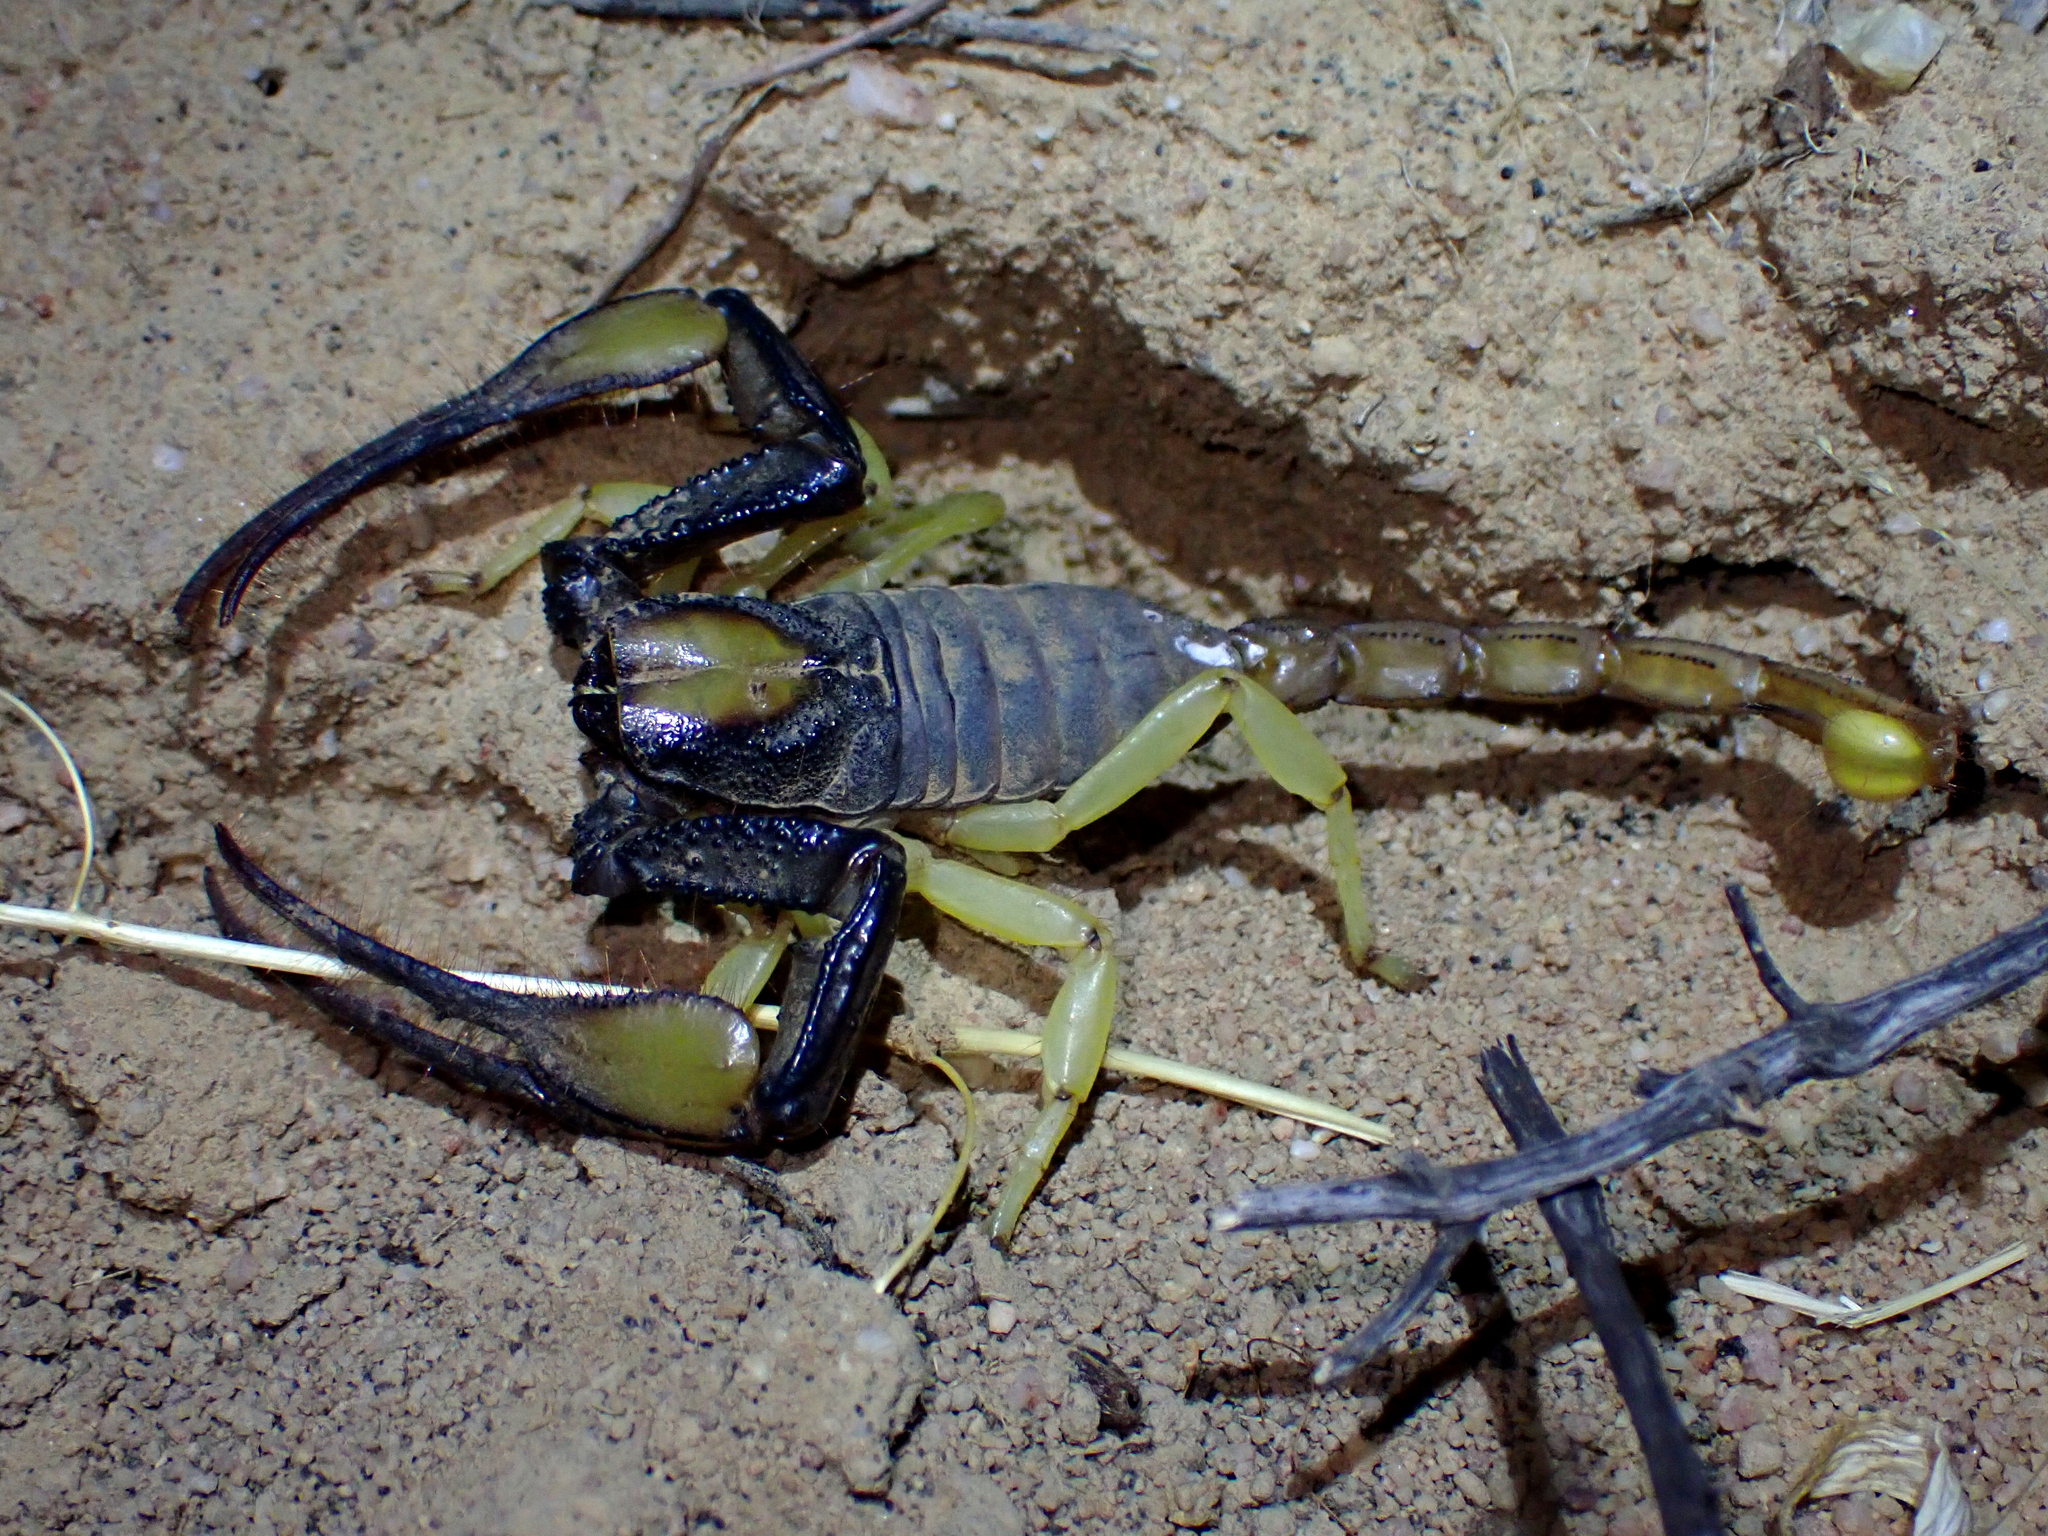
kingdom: Animalia
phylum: Arthropoda
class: Arachnida
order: Scorpiones
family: Scorpionidae
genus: Opistophthalmus
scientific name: Opistophthalmus pallipes
